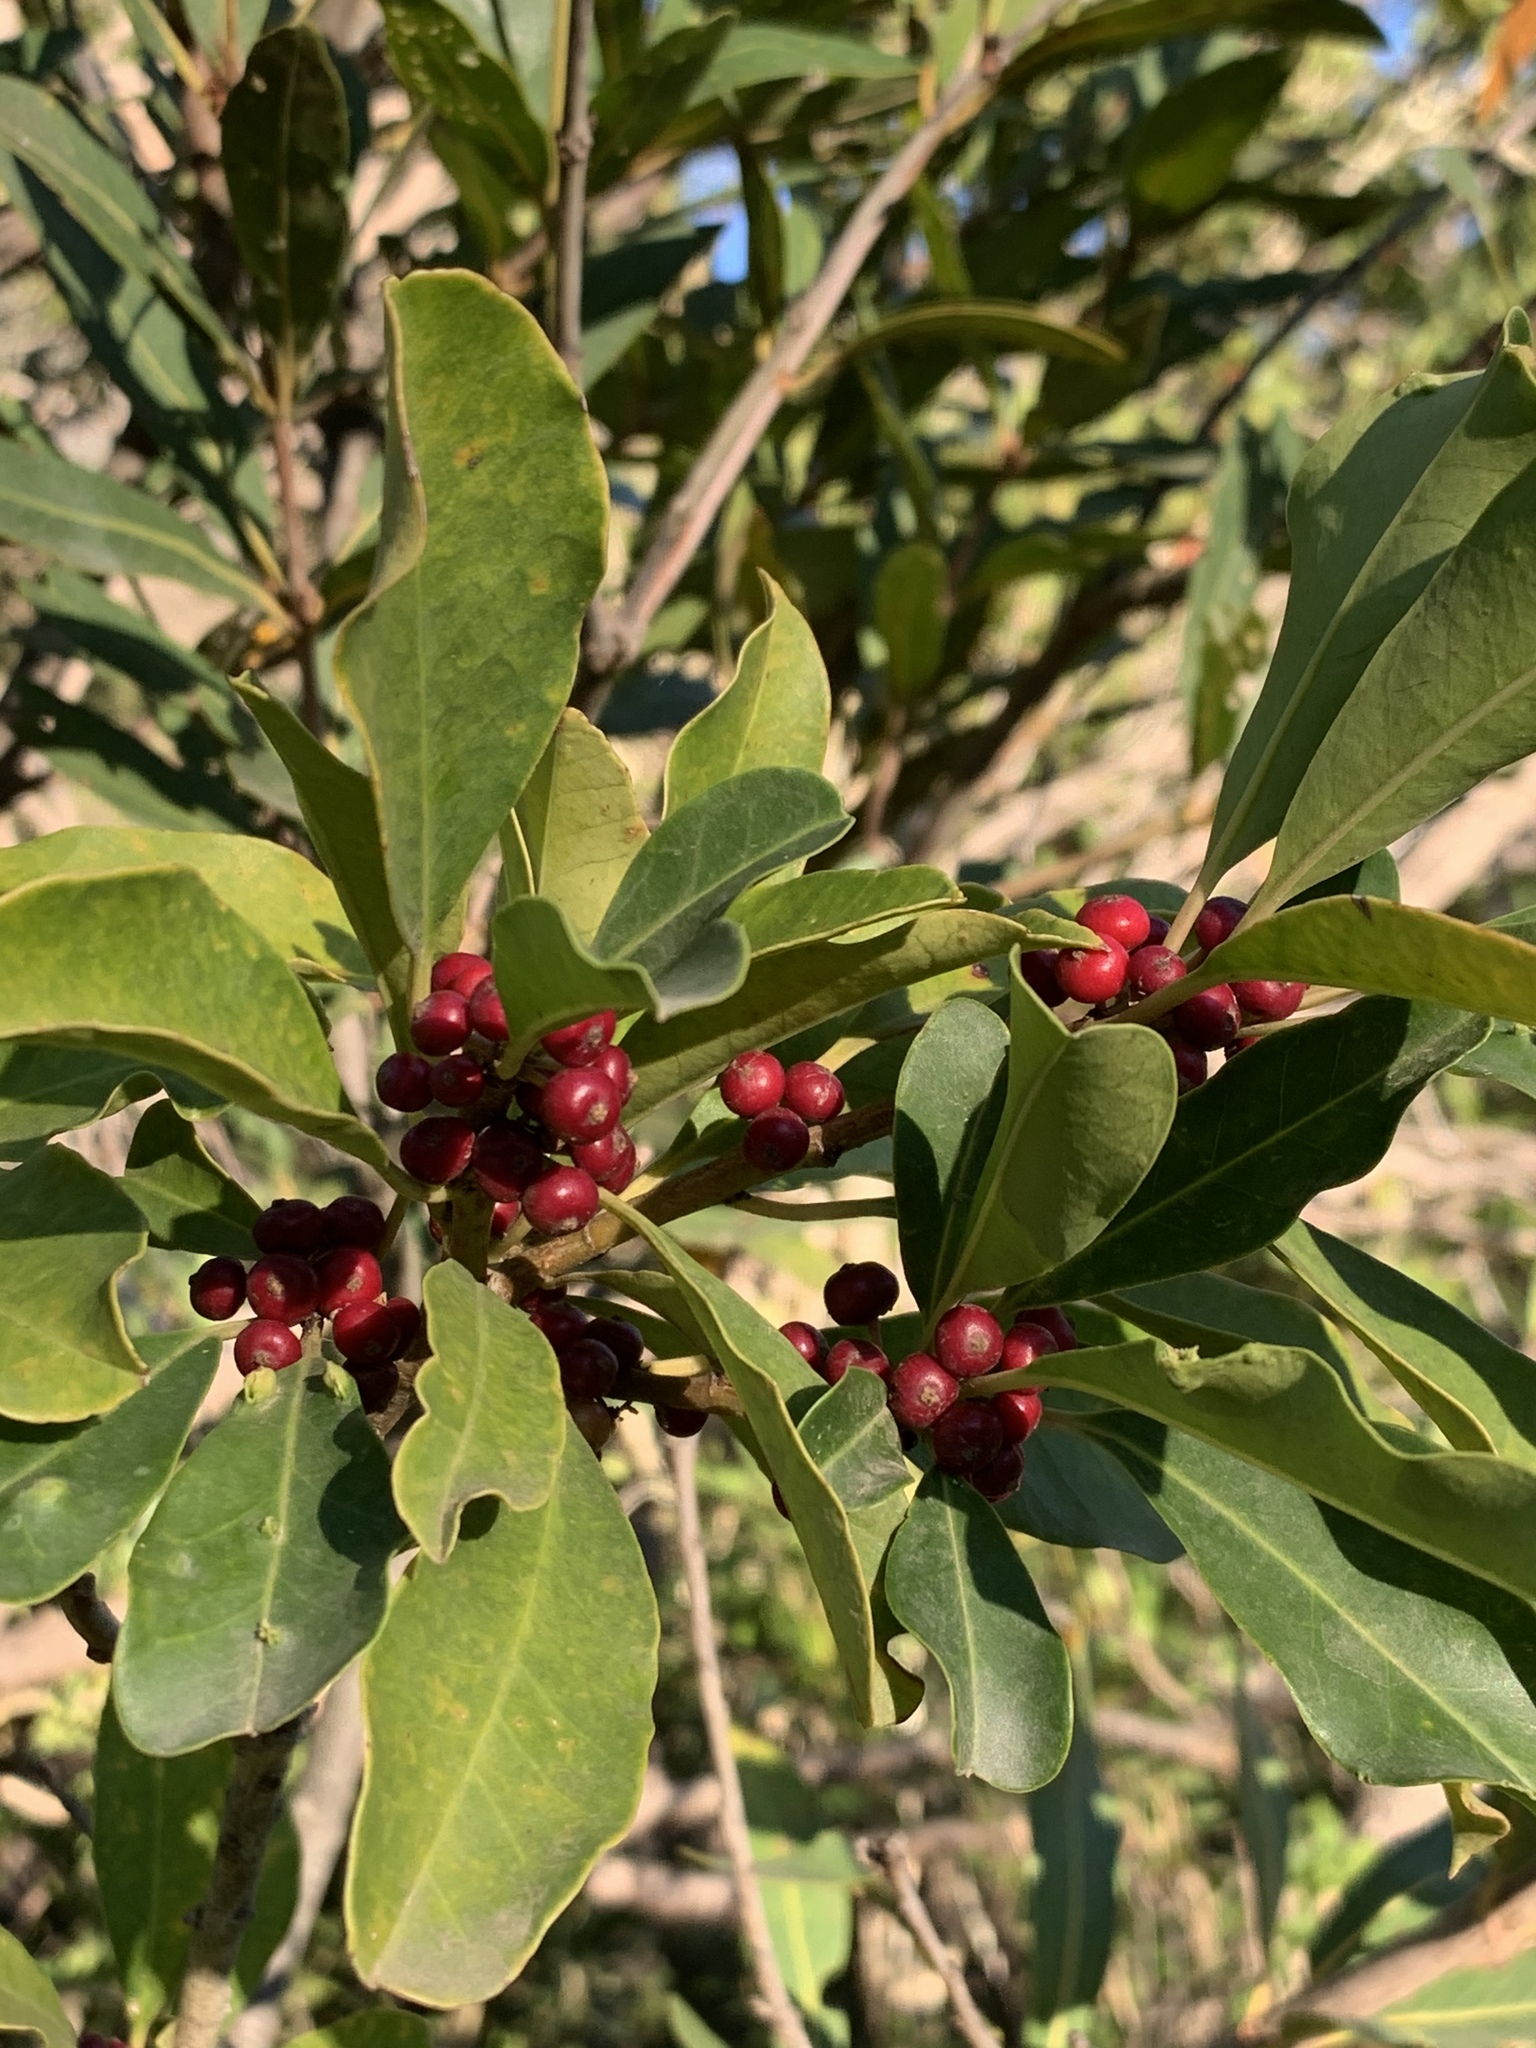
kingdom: Plantae
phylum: Tracheophyta
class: Magnoliopsida
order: Aquifoliales
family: Aquifoliaceae
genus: Ilex
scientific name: Ilex mitis
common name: African holly
